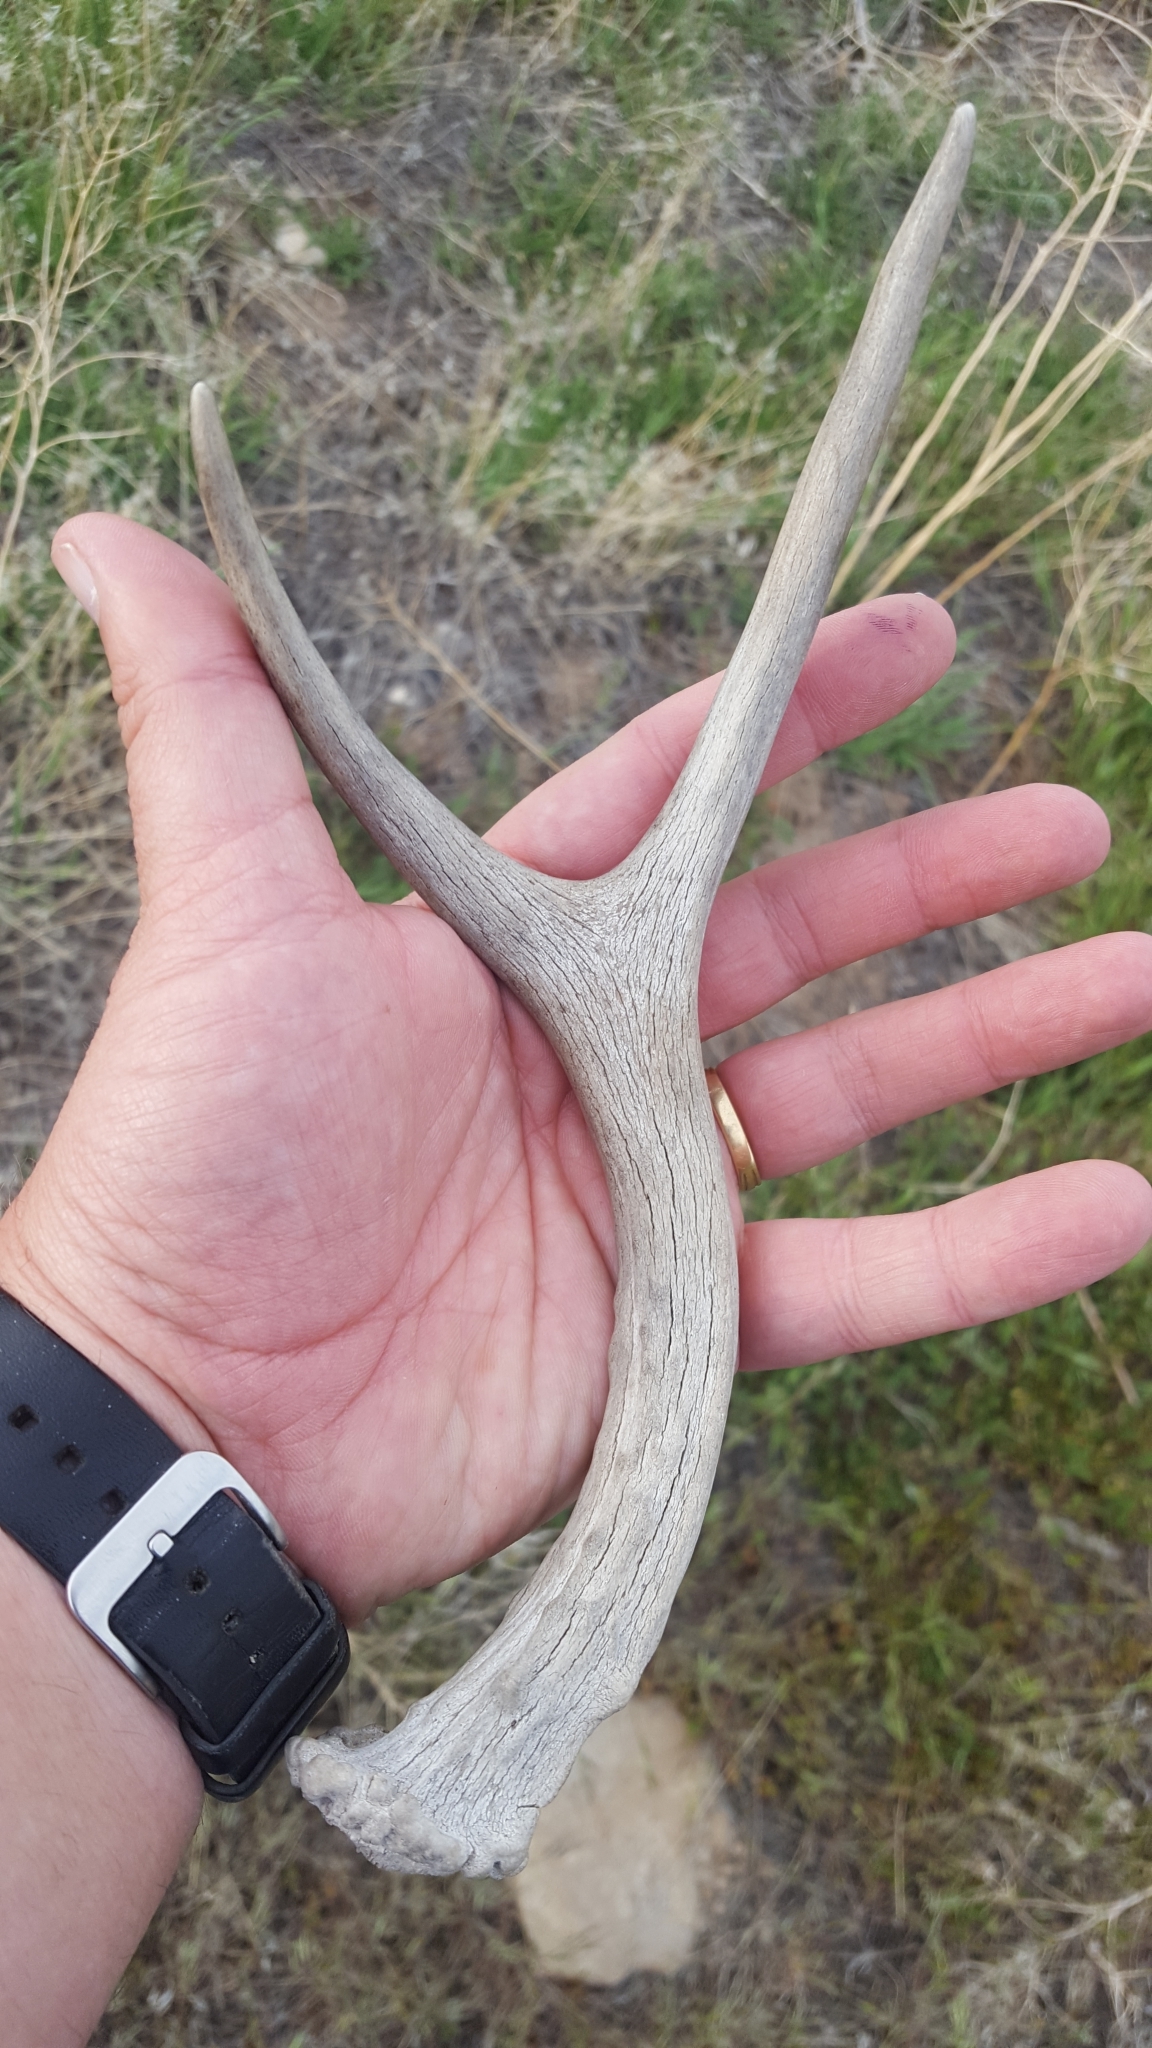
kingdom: Animalia
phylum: Chordata
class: Mammalia
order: Artiodactyla
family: Cervidae
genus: Odocoileus
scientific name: Odocoileus hemionus
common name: Mule deer
